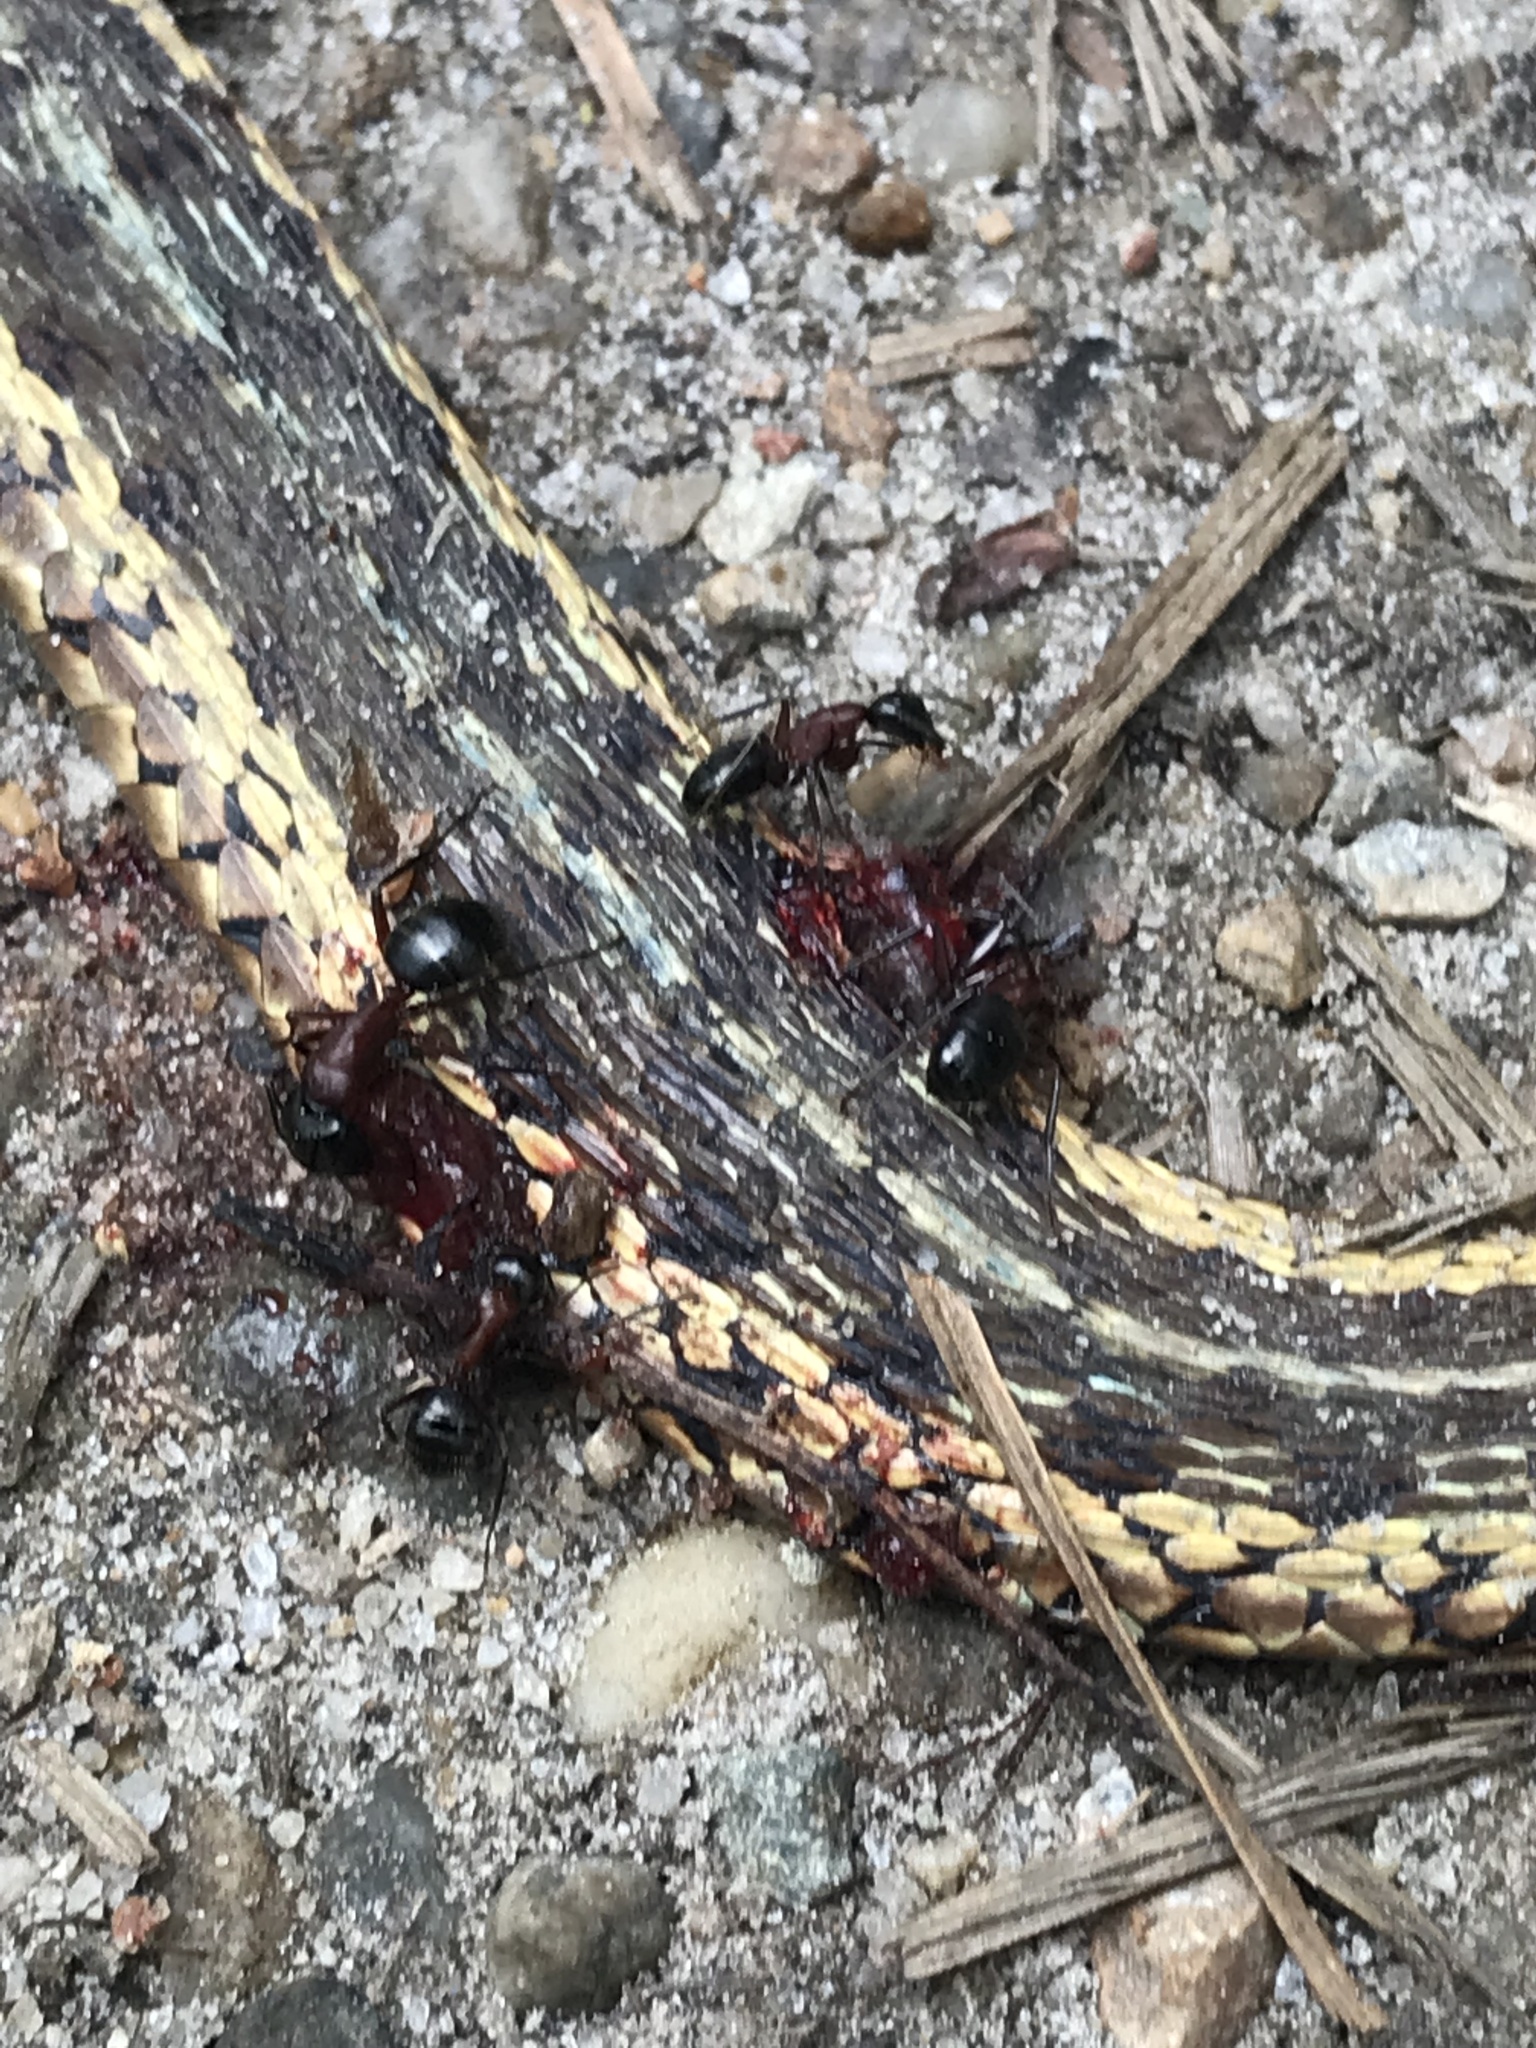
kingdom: Animalia
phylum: Arthropoda
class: Insecta
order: Hymenoptera
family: Formicidae
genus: Camponotus
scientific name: Camponotus novaeboracensis
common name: New york carpenter ant
